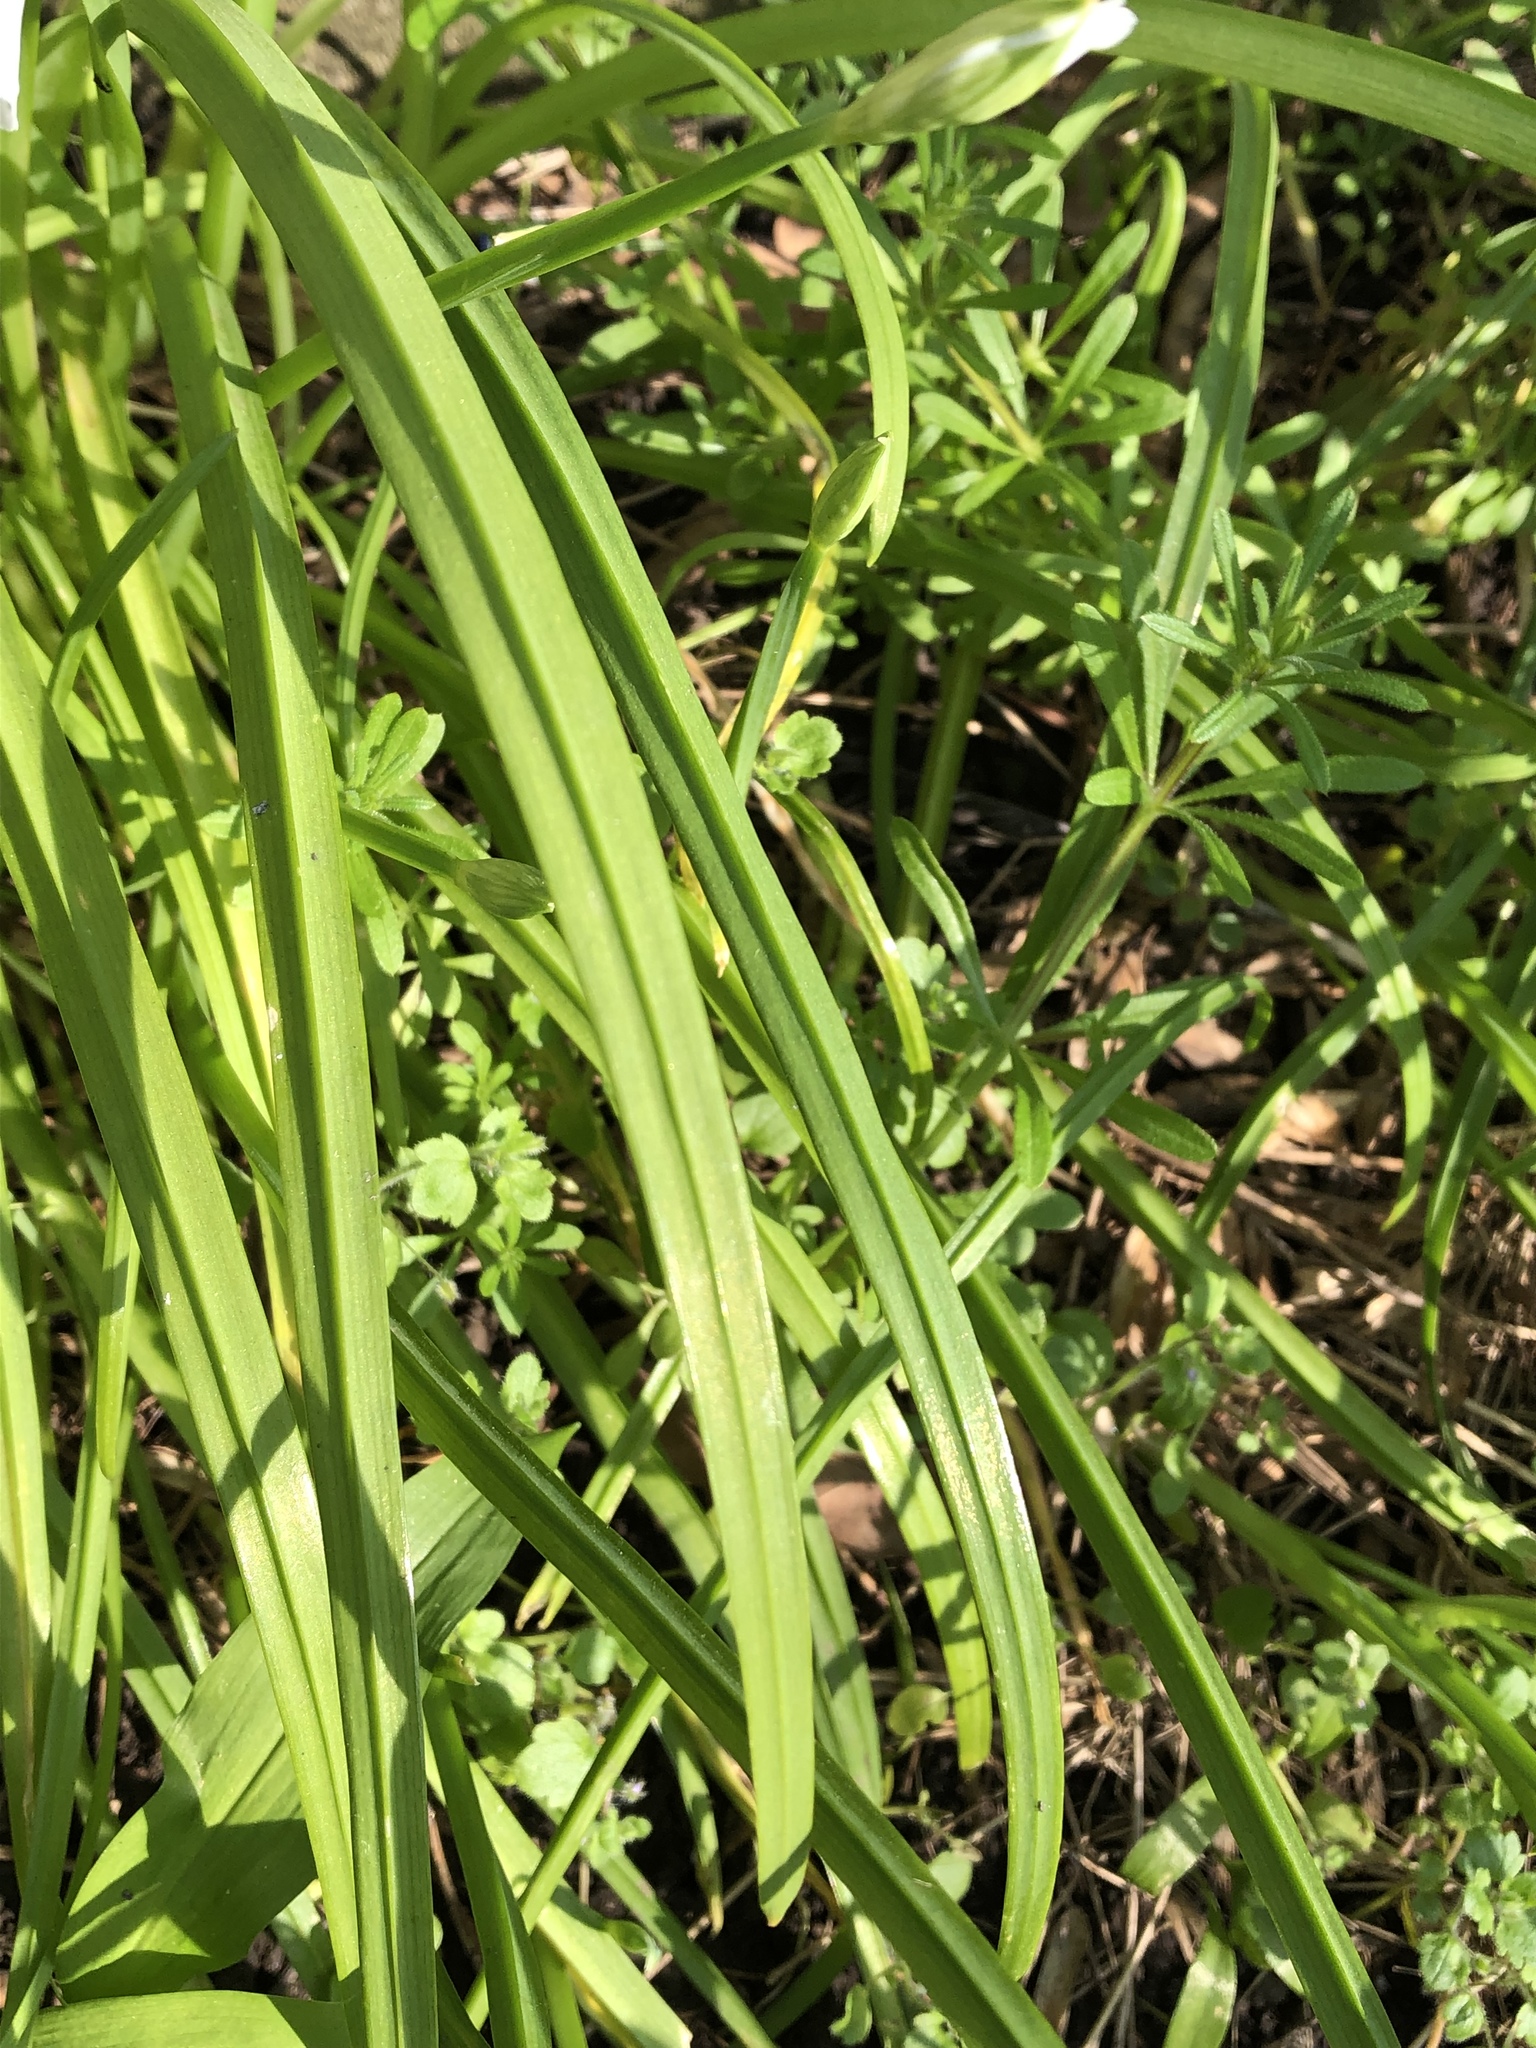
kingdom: Plantae
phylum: Tracheophyta
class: Liliopsida
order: Asparagales
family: Amaryllidaceae
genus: Allium
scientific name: Allium triquetrum
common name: Three-cornered garlic
